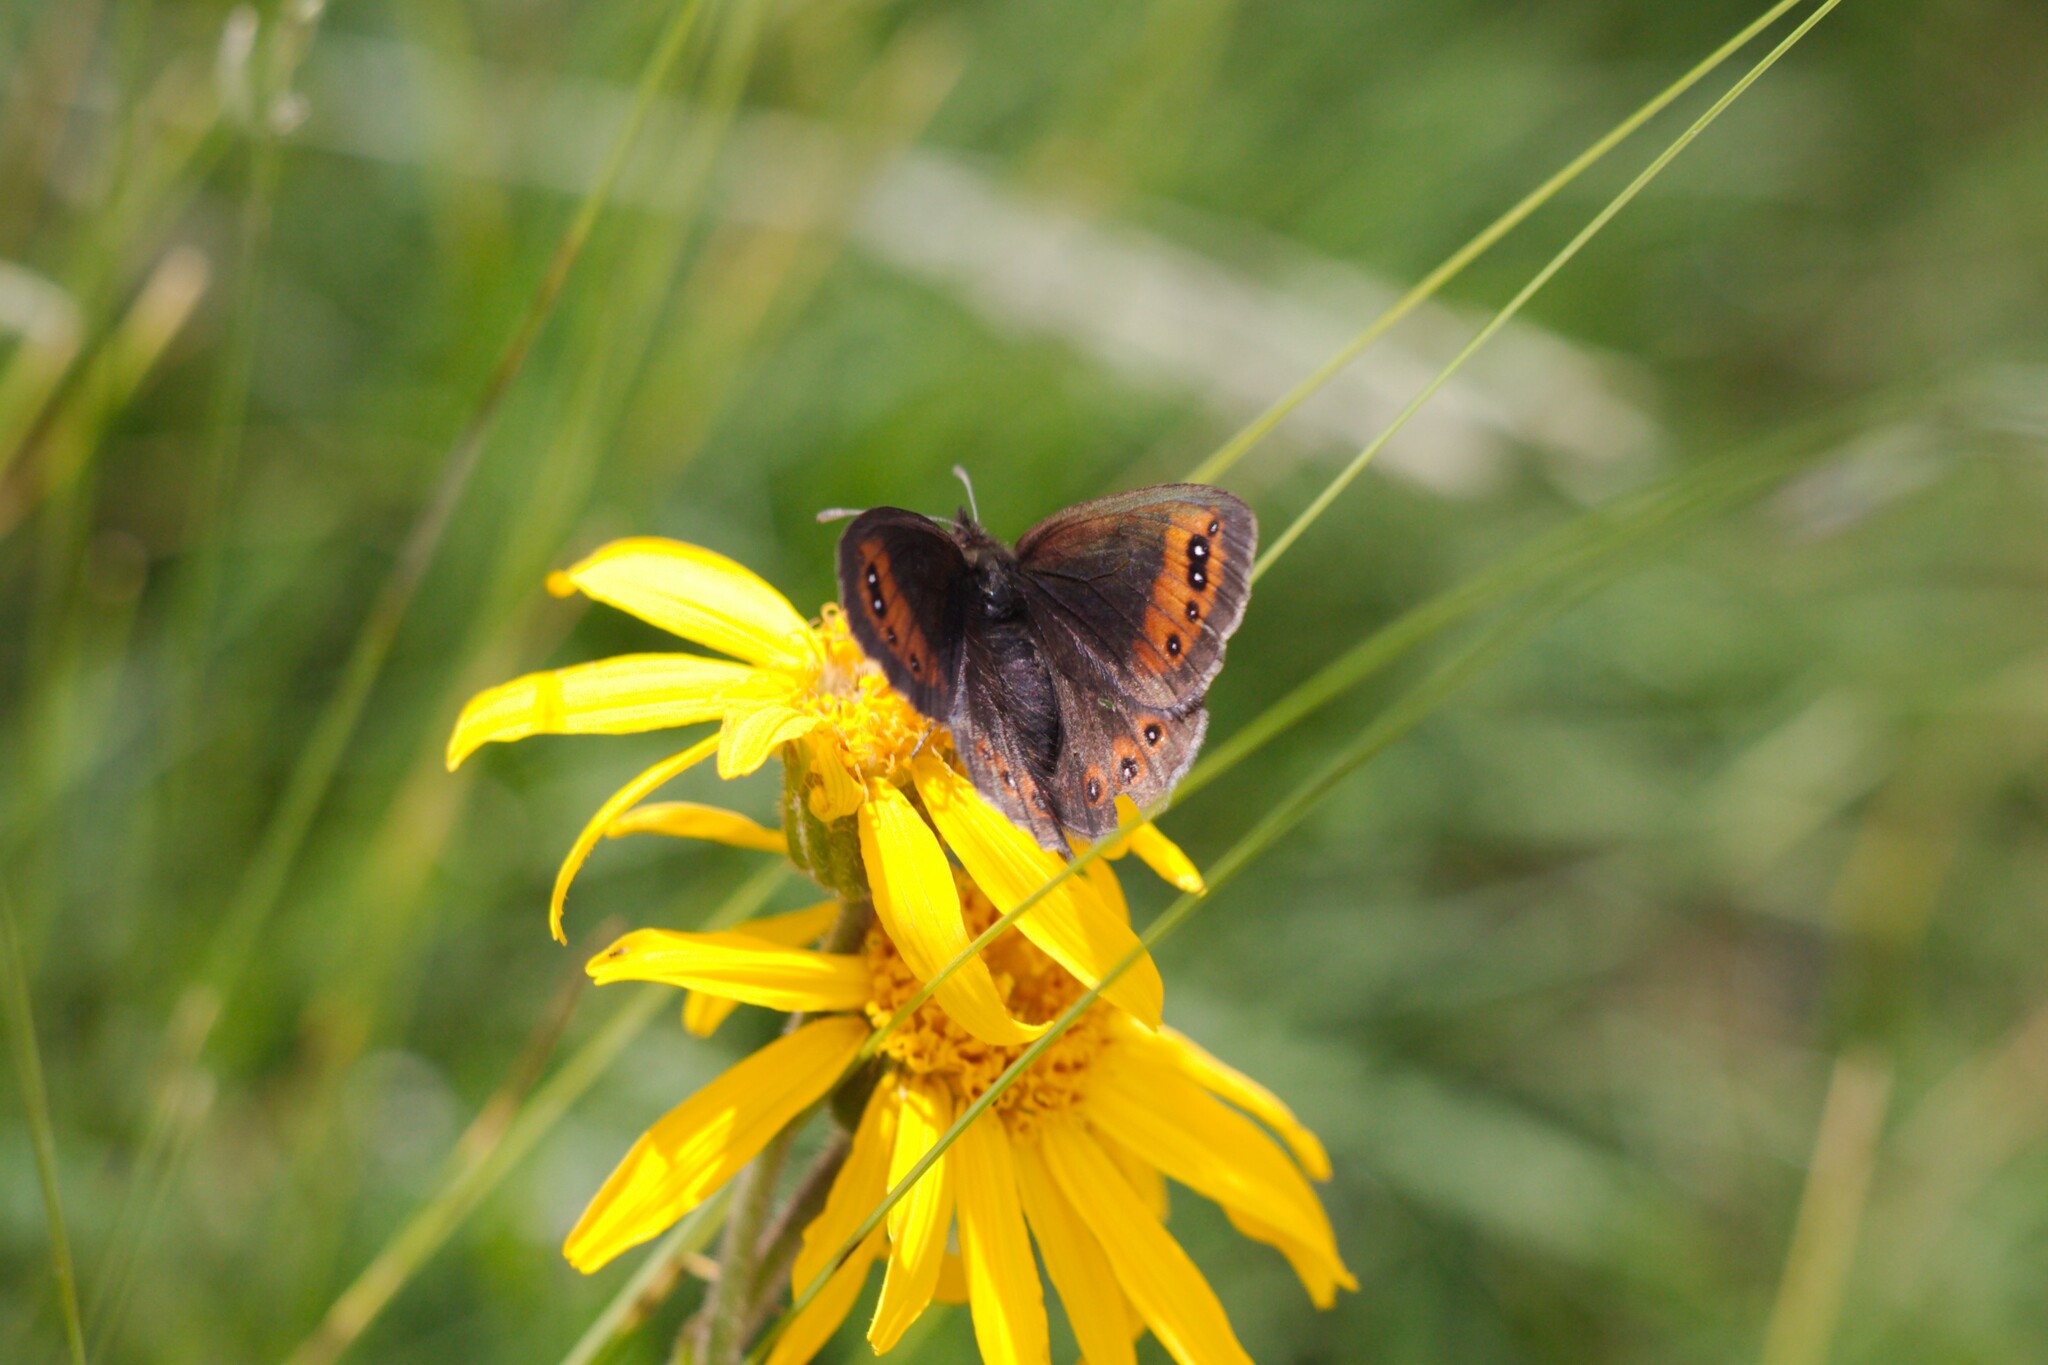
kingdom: Animalia
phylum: Arthropoda
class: Insecta
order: Lepidoptera
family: Nymphalidae
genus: Erebia
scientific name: Erebia meolans
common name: Piedmont ringlet
